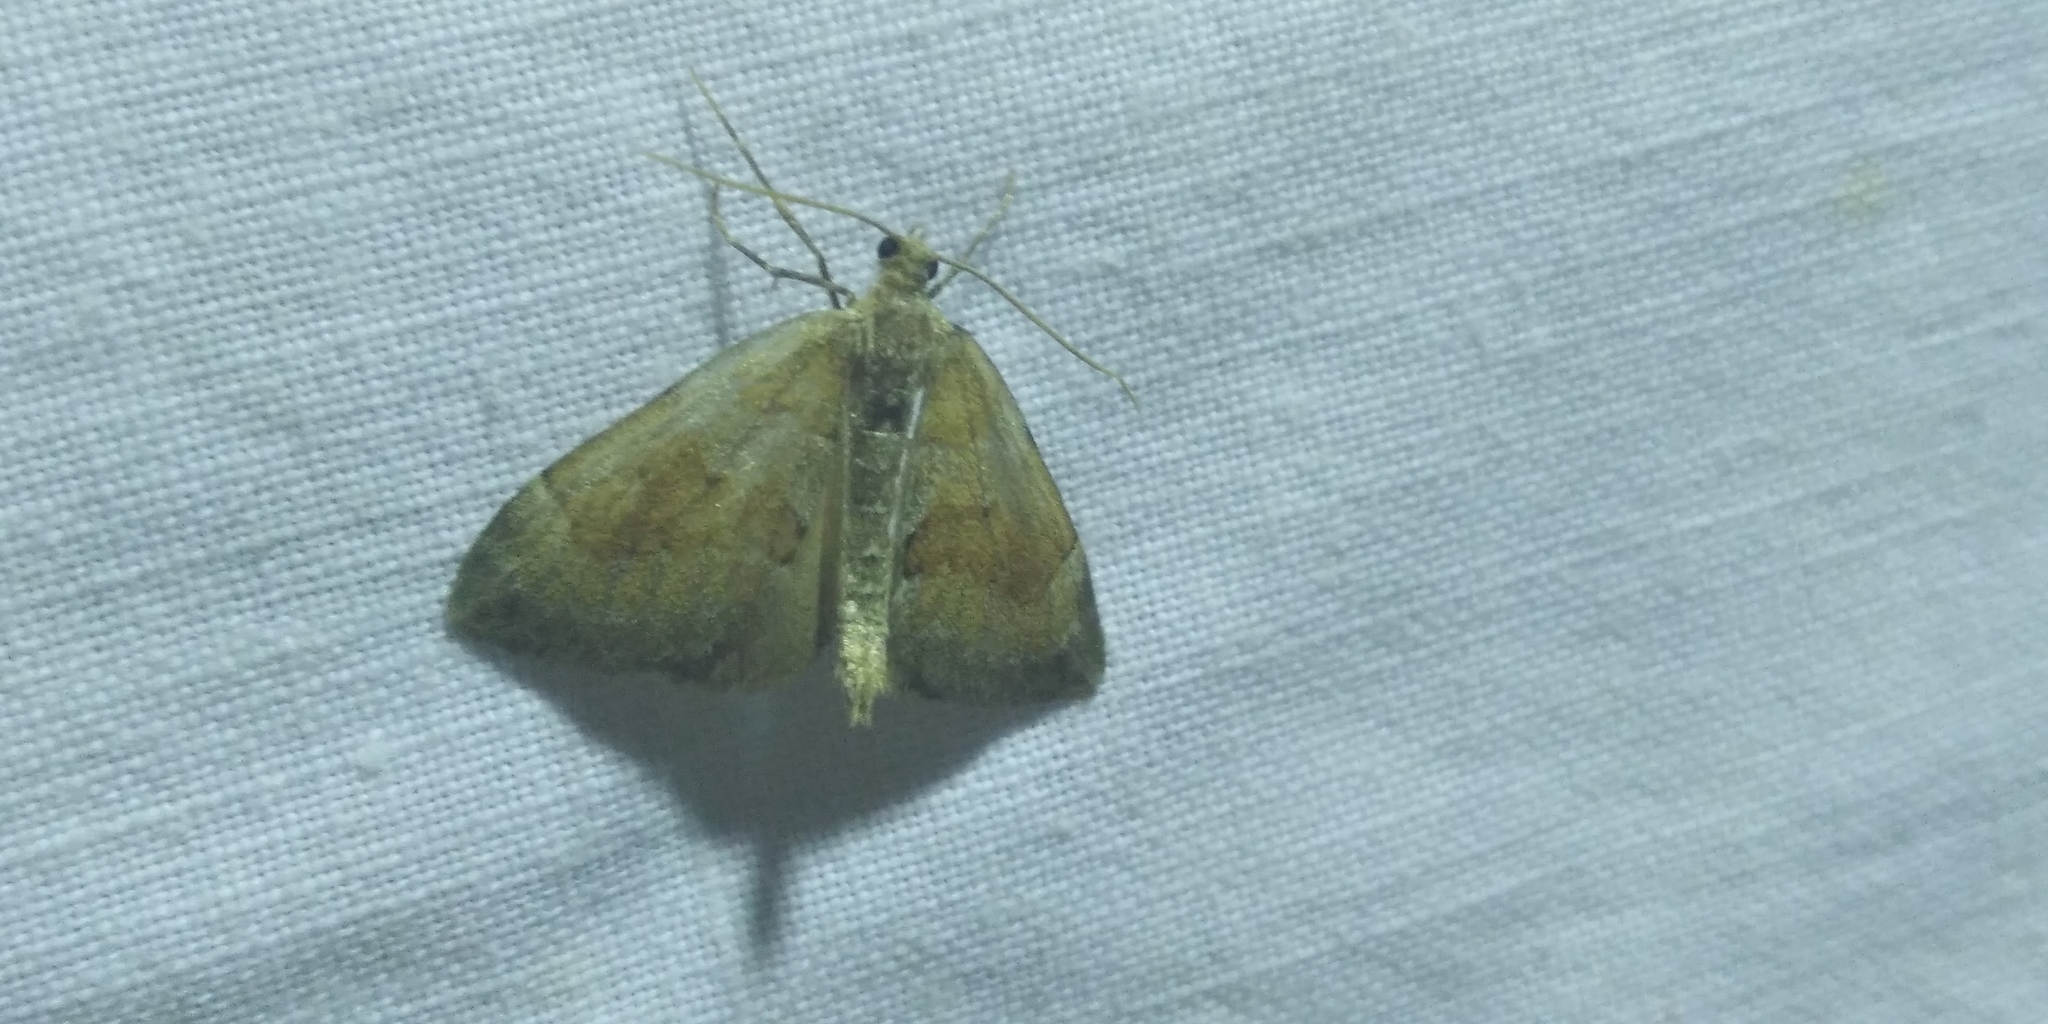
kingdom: Animalia
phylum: Arthropoda
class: Insecta
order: Lepidoptera
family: Geometridae
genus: Thera
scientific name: Thera obeliscata
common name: Grey pine carpet
